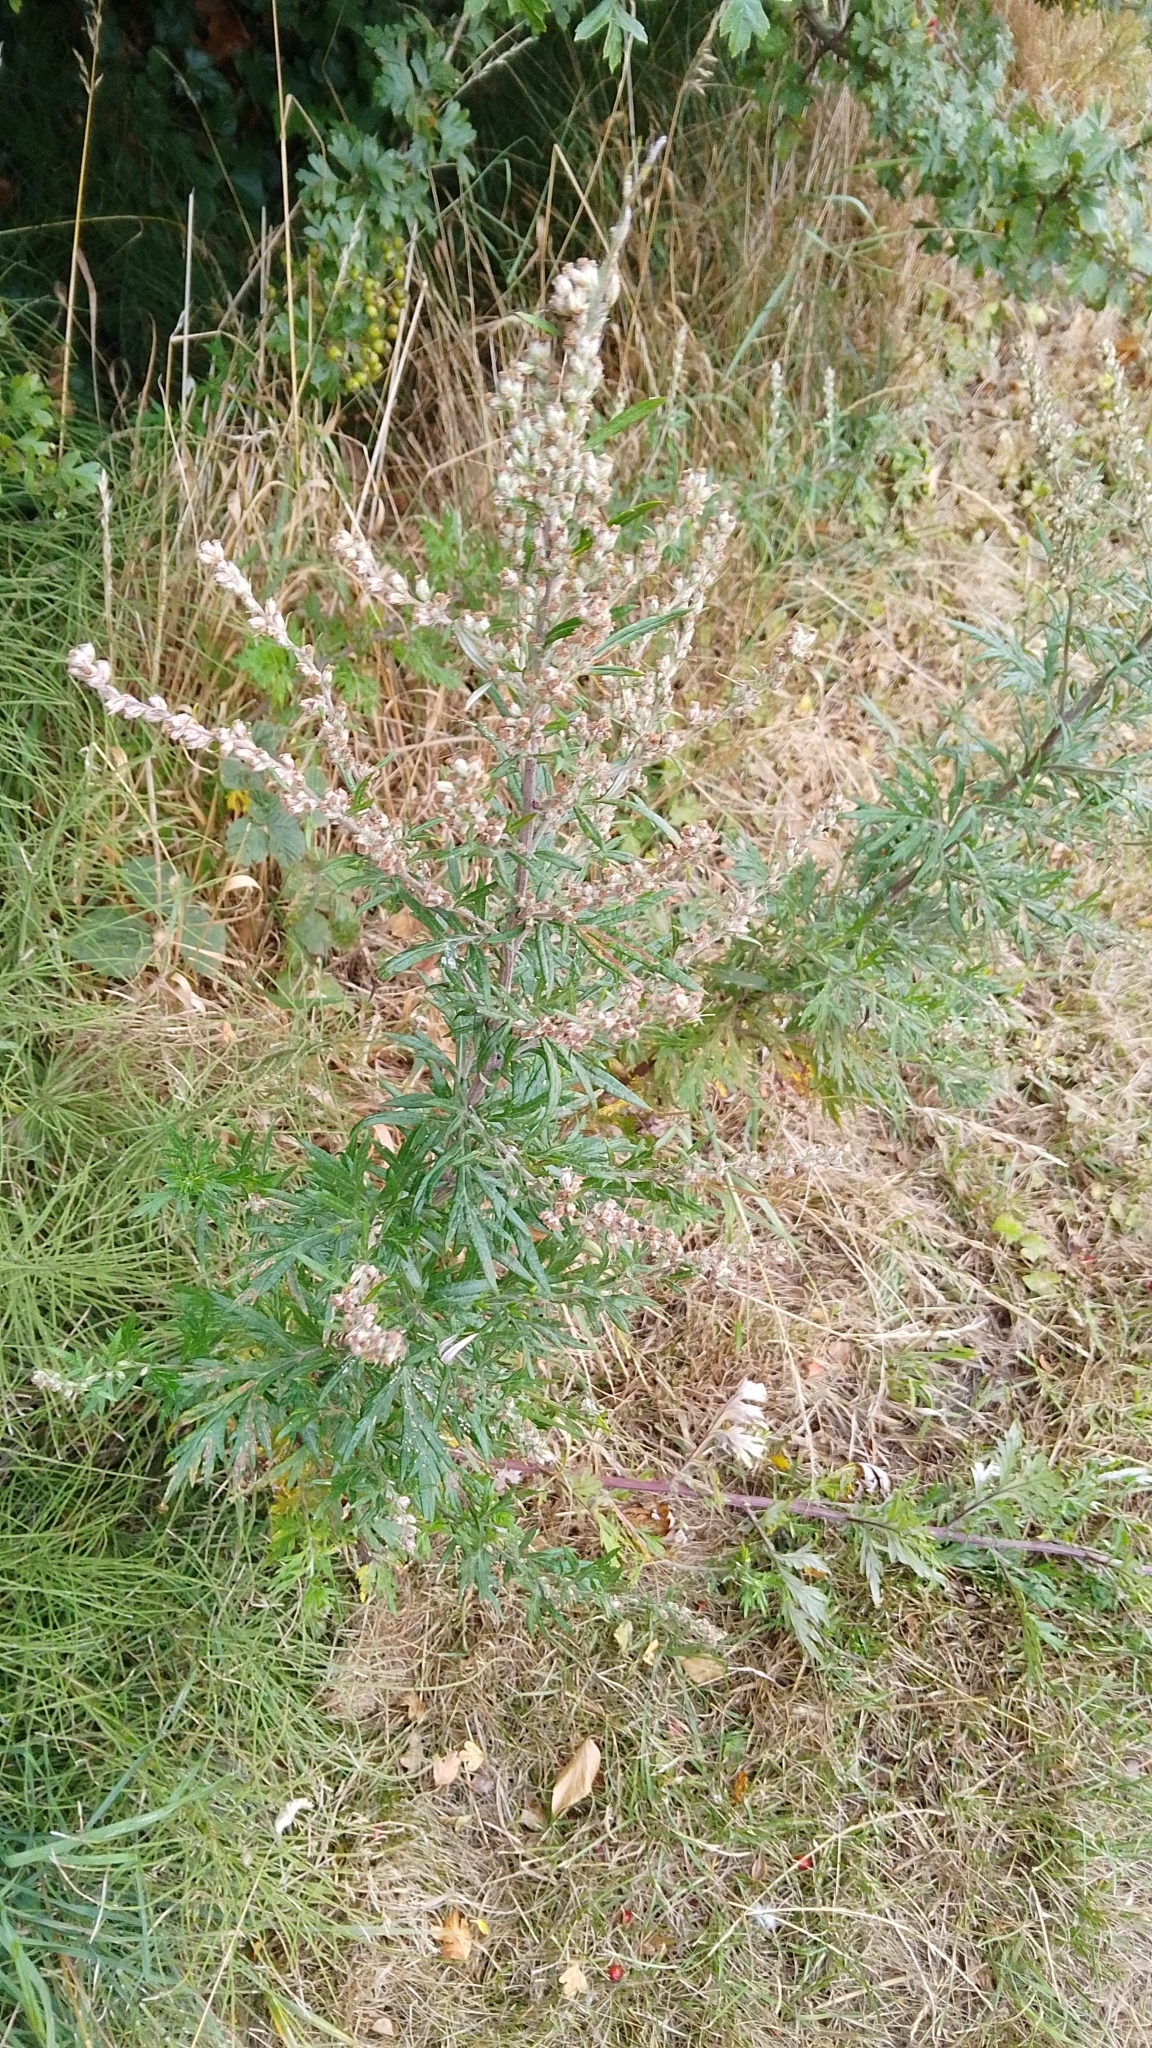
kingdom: Plantae
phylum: Tracheophyta
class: Magnoliopsida
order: Asterales
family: Asteraceae
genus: Artemisia
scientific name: Artemisia vulgaris
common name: Mugwort
